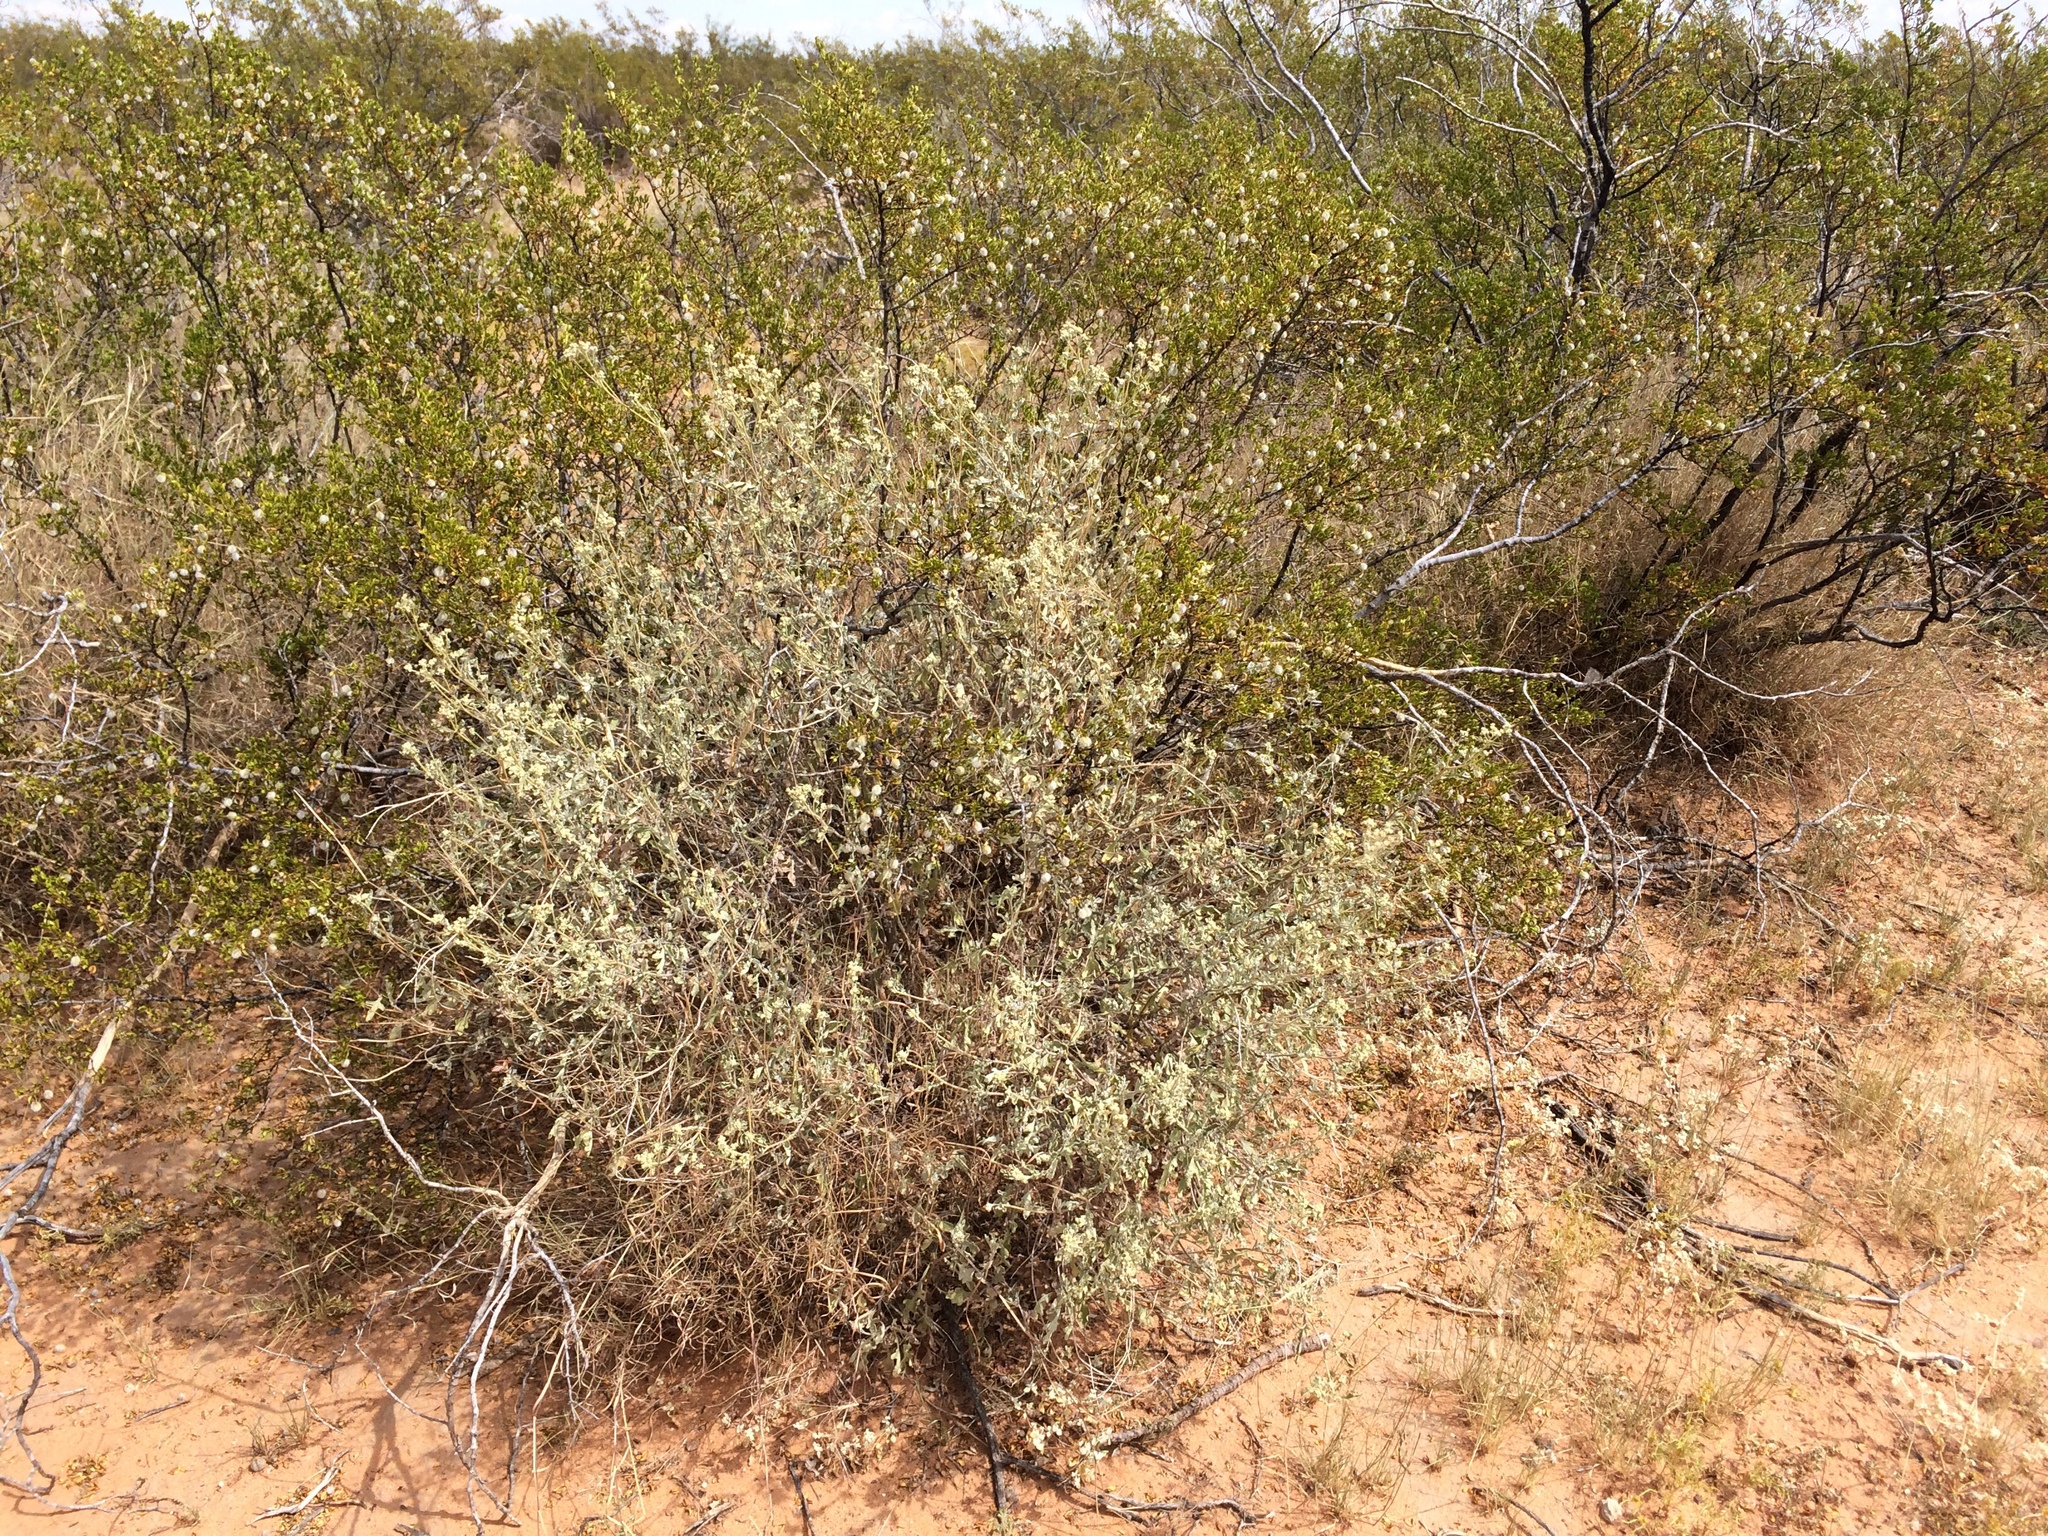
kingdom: Plantae
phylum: Tracheophyta
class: Magnoliopsida
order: Asterales
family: Asteraceae
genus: Parthenium
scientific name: Parthenium incanum
